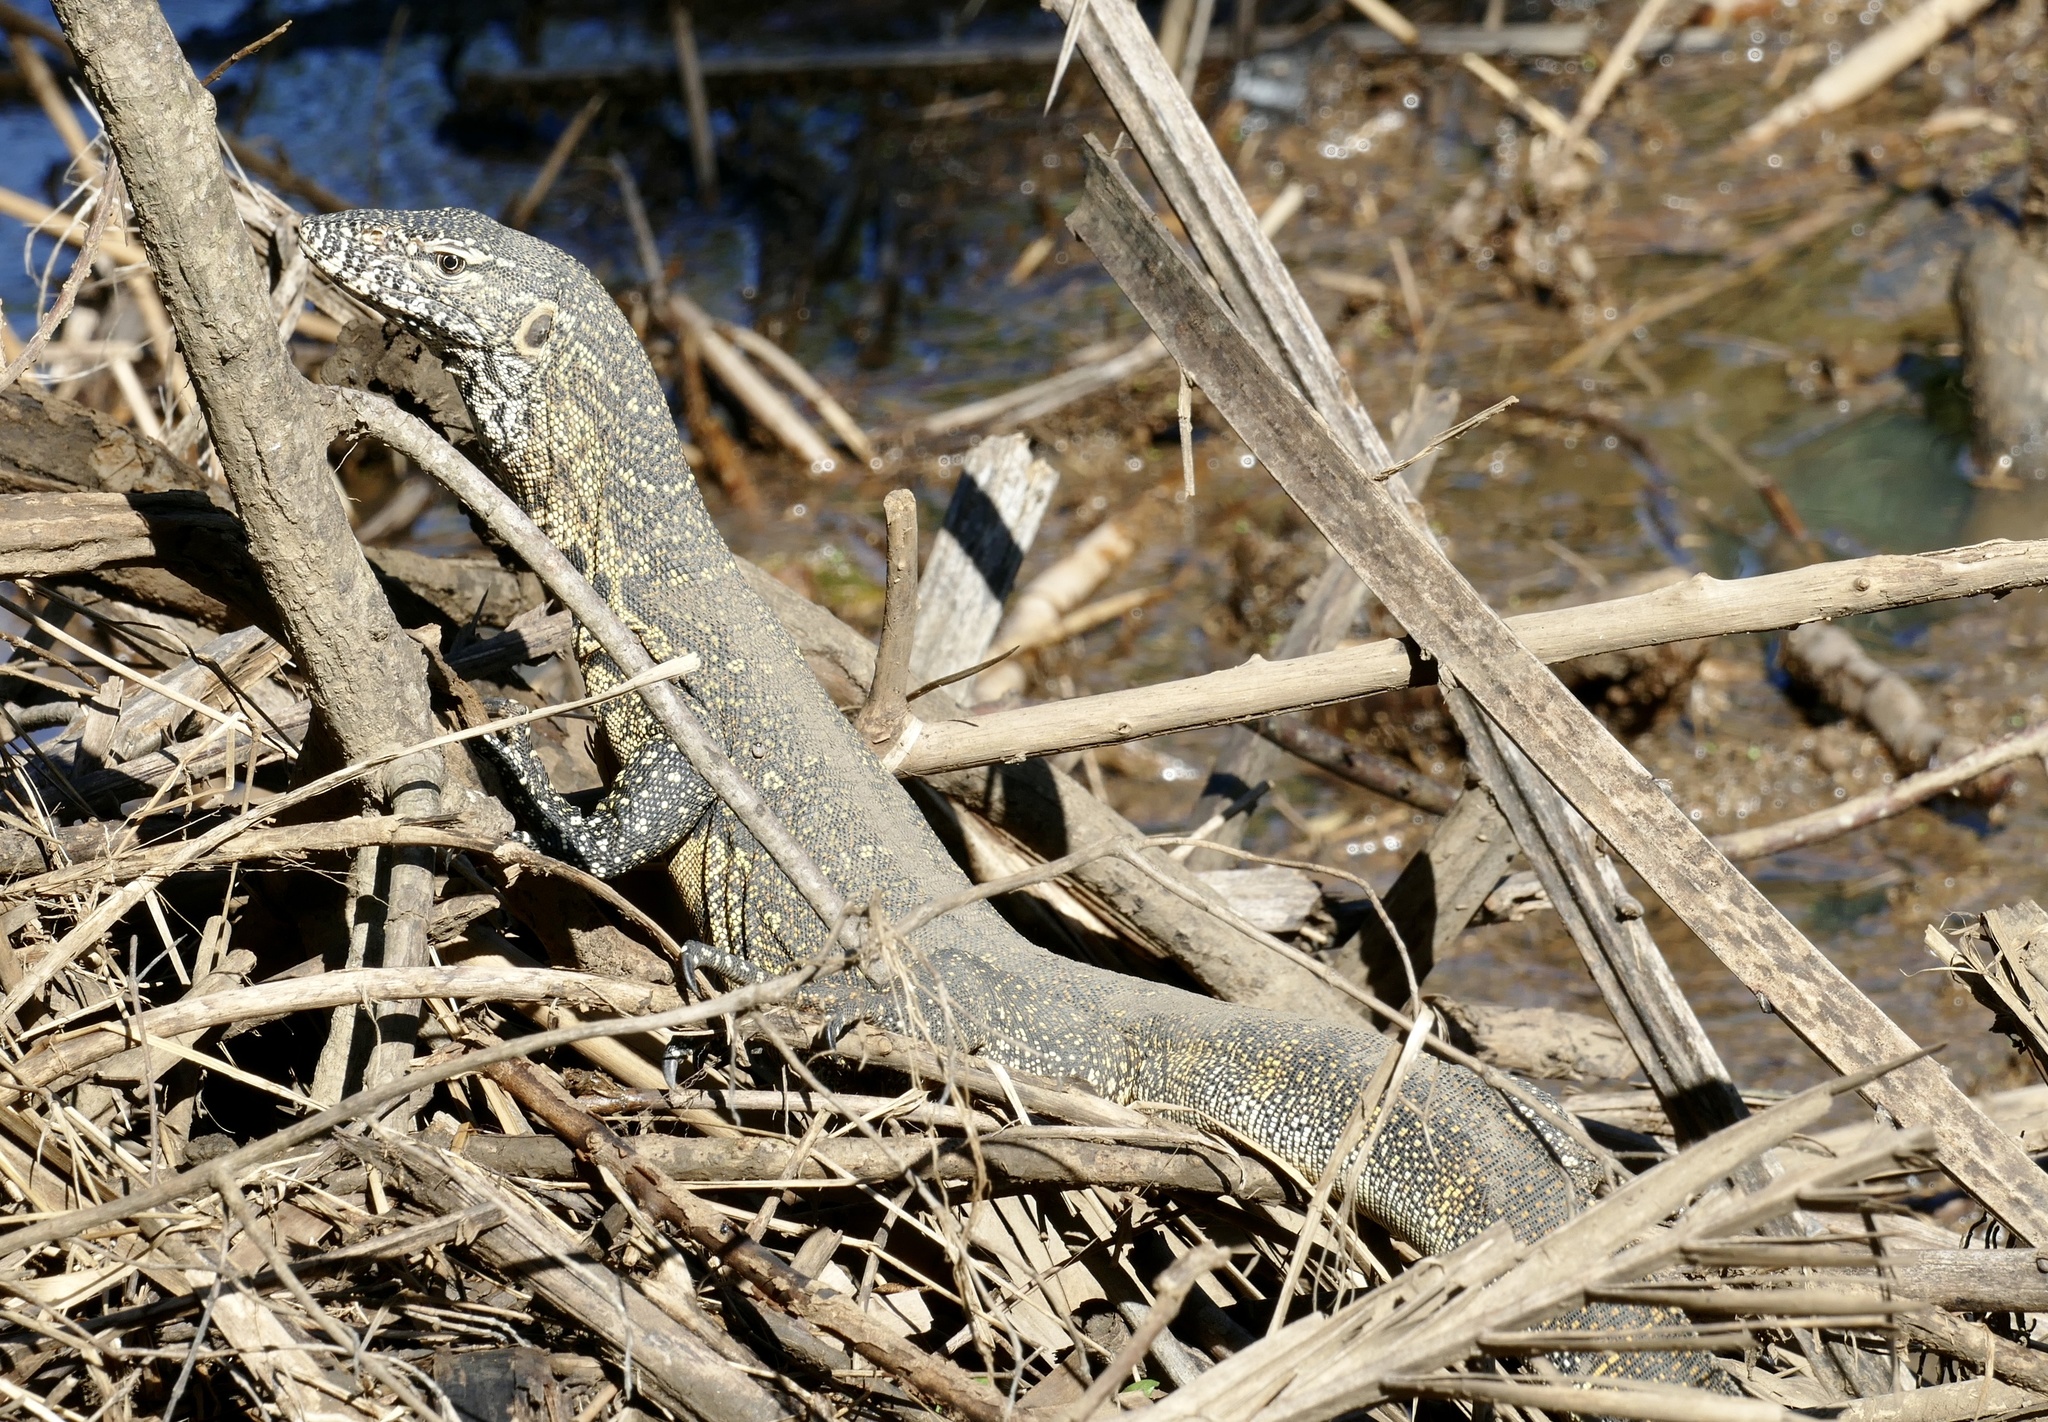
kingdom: Animalia
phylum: Chordata
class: Squamata
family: Varanidae
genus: Varanus
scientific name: Varanus niloticus
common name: Nile monitor
